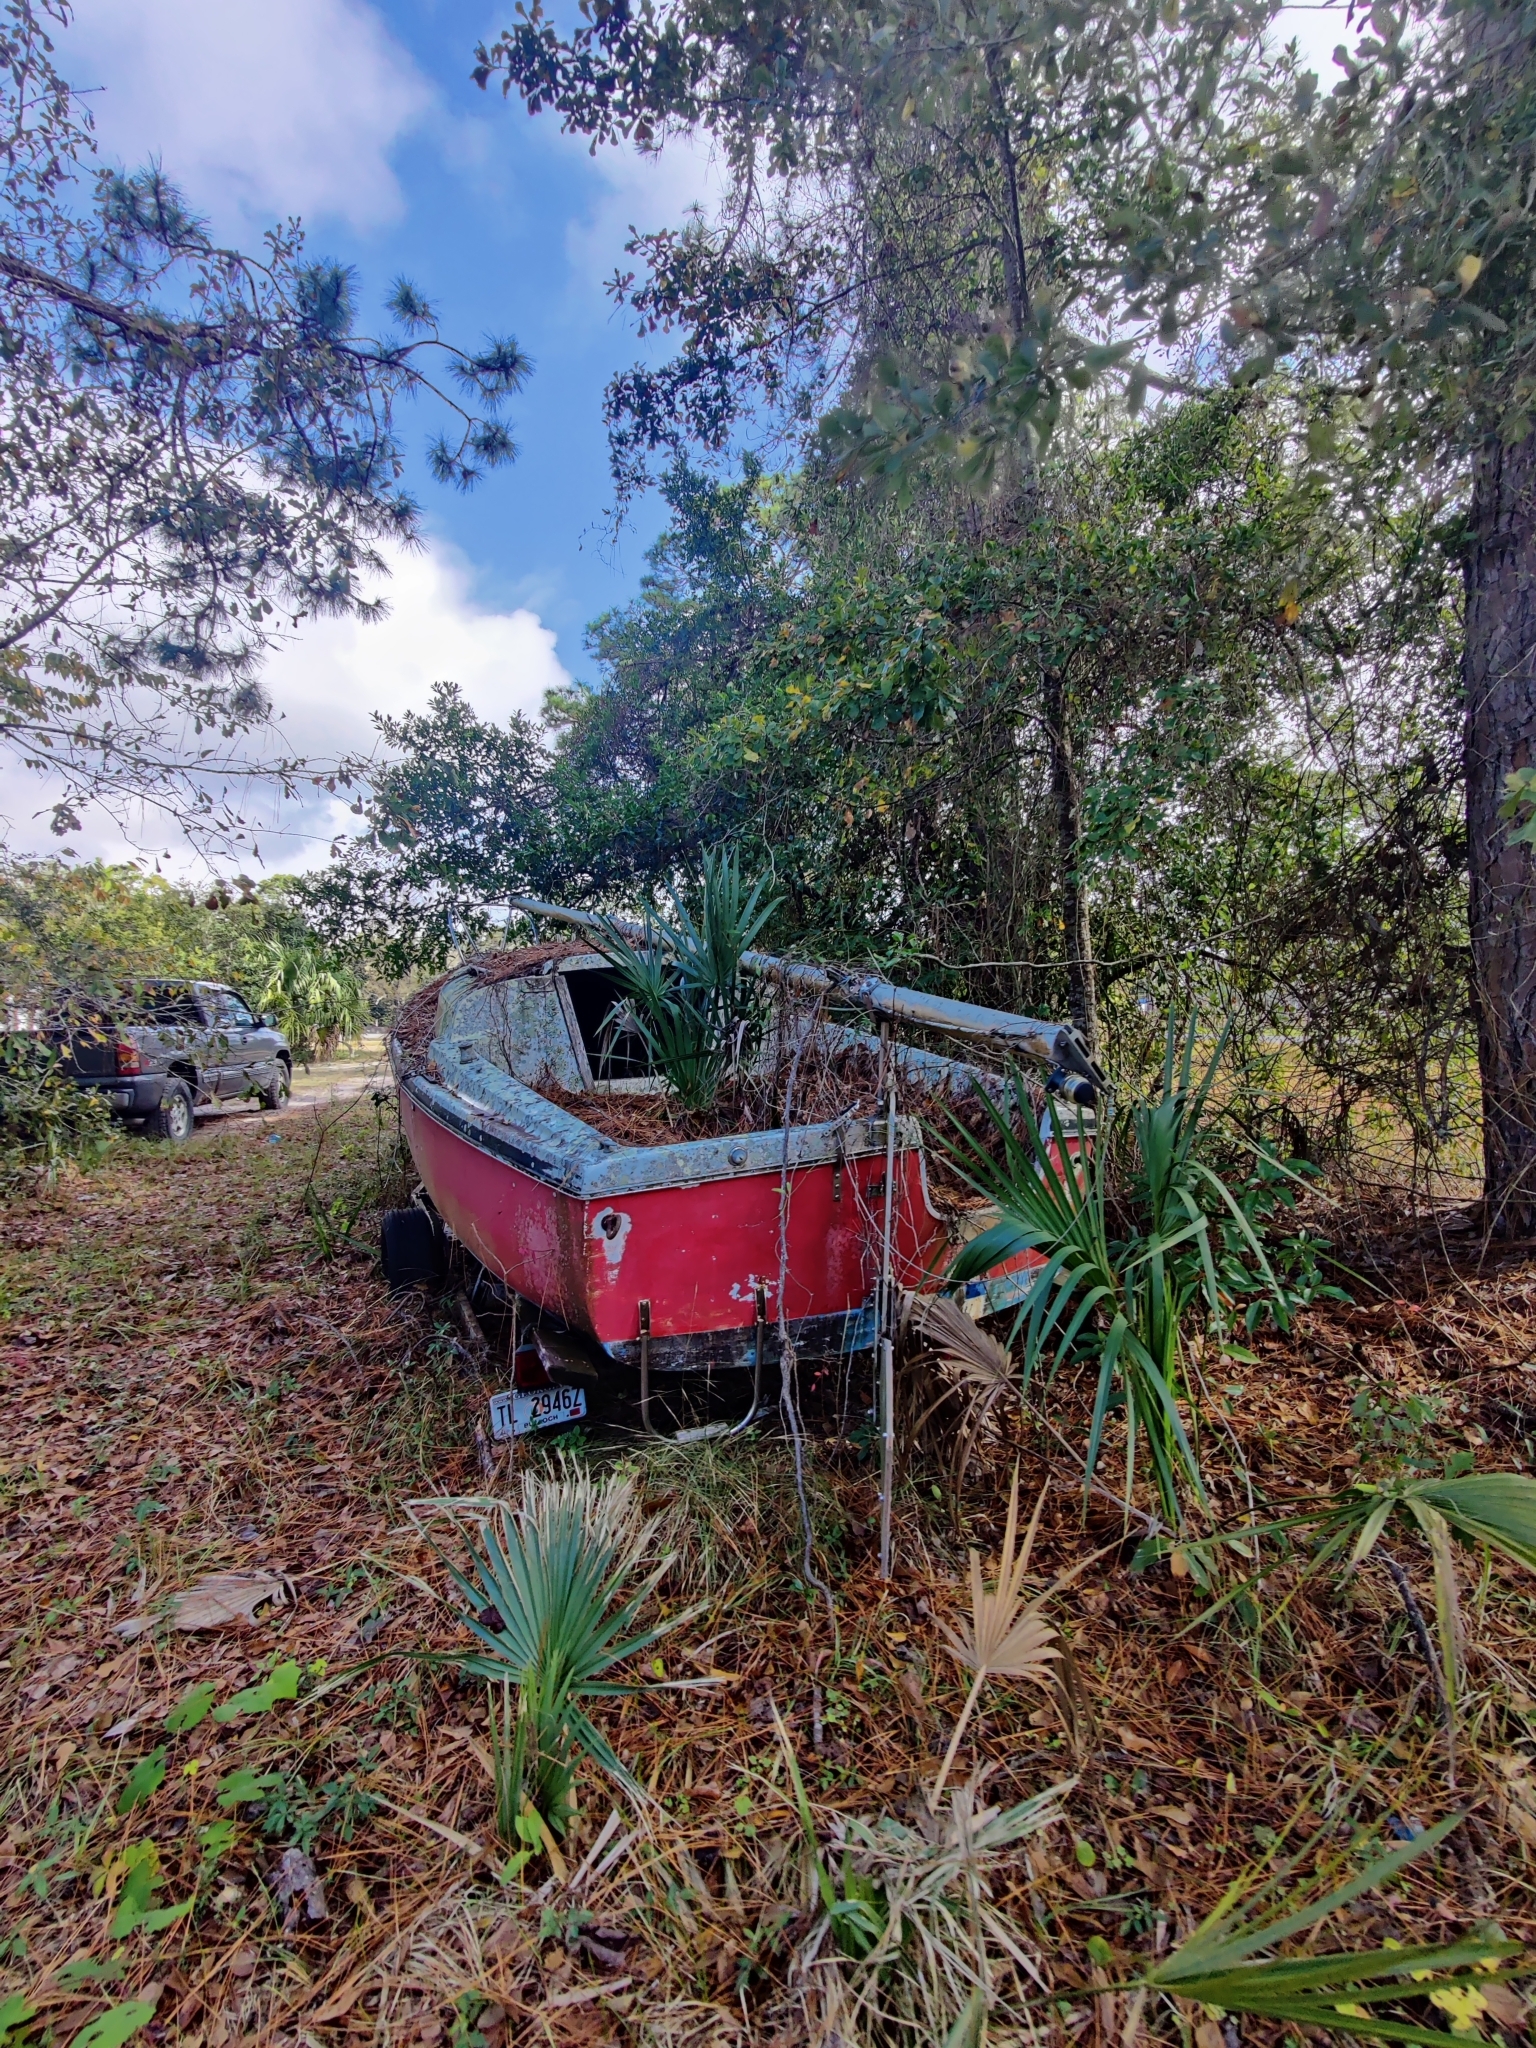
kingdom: Plantae
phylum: Tracheophyta
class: Liliopsida
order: Arecales
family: Arecaceae
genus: Sabal
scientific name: Sabal palmetto
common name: Blue palmetto
